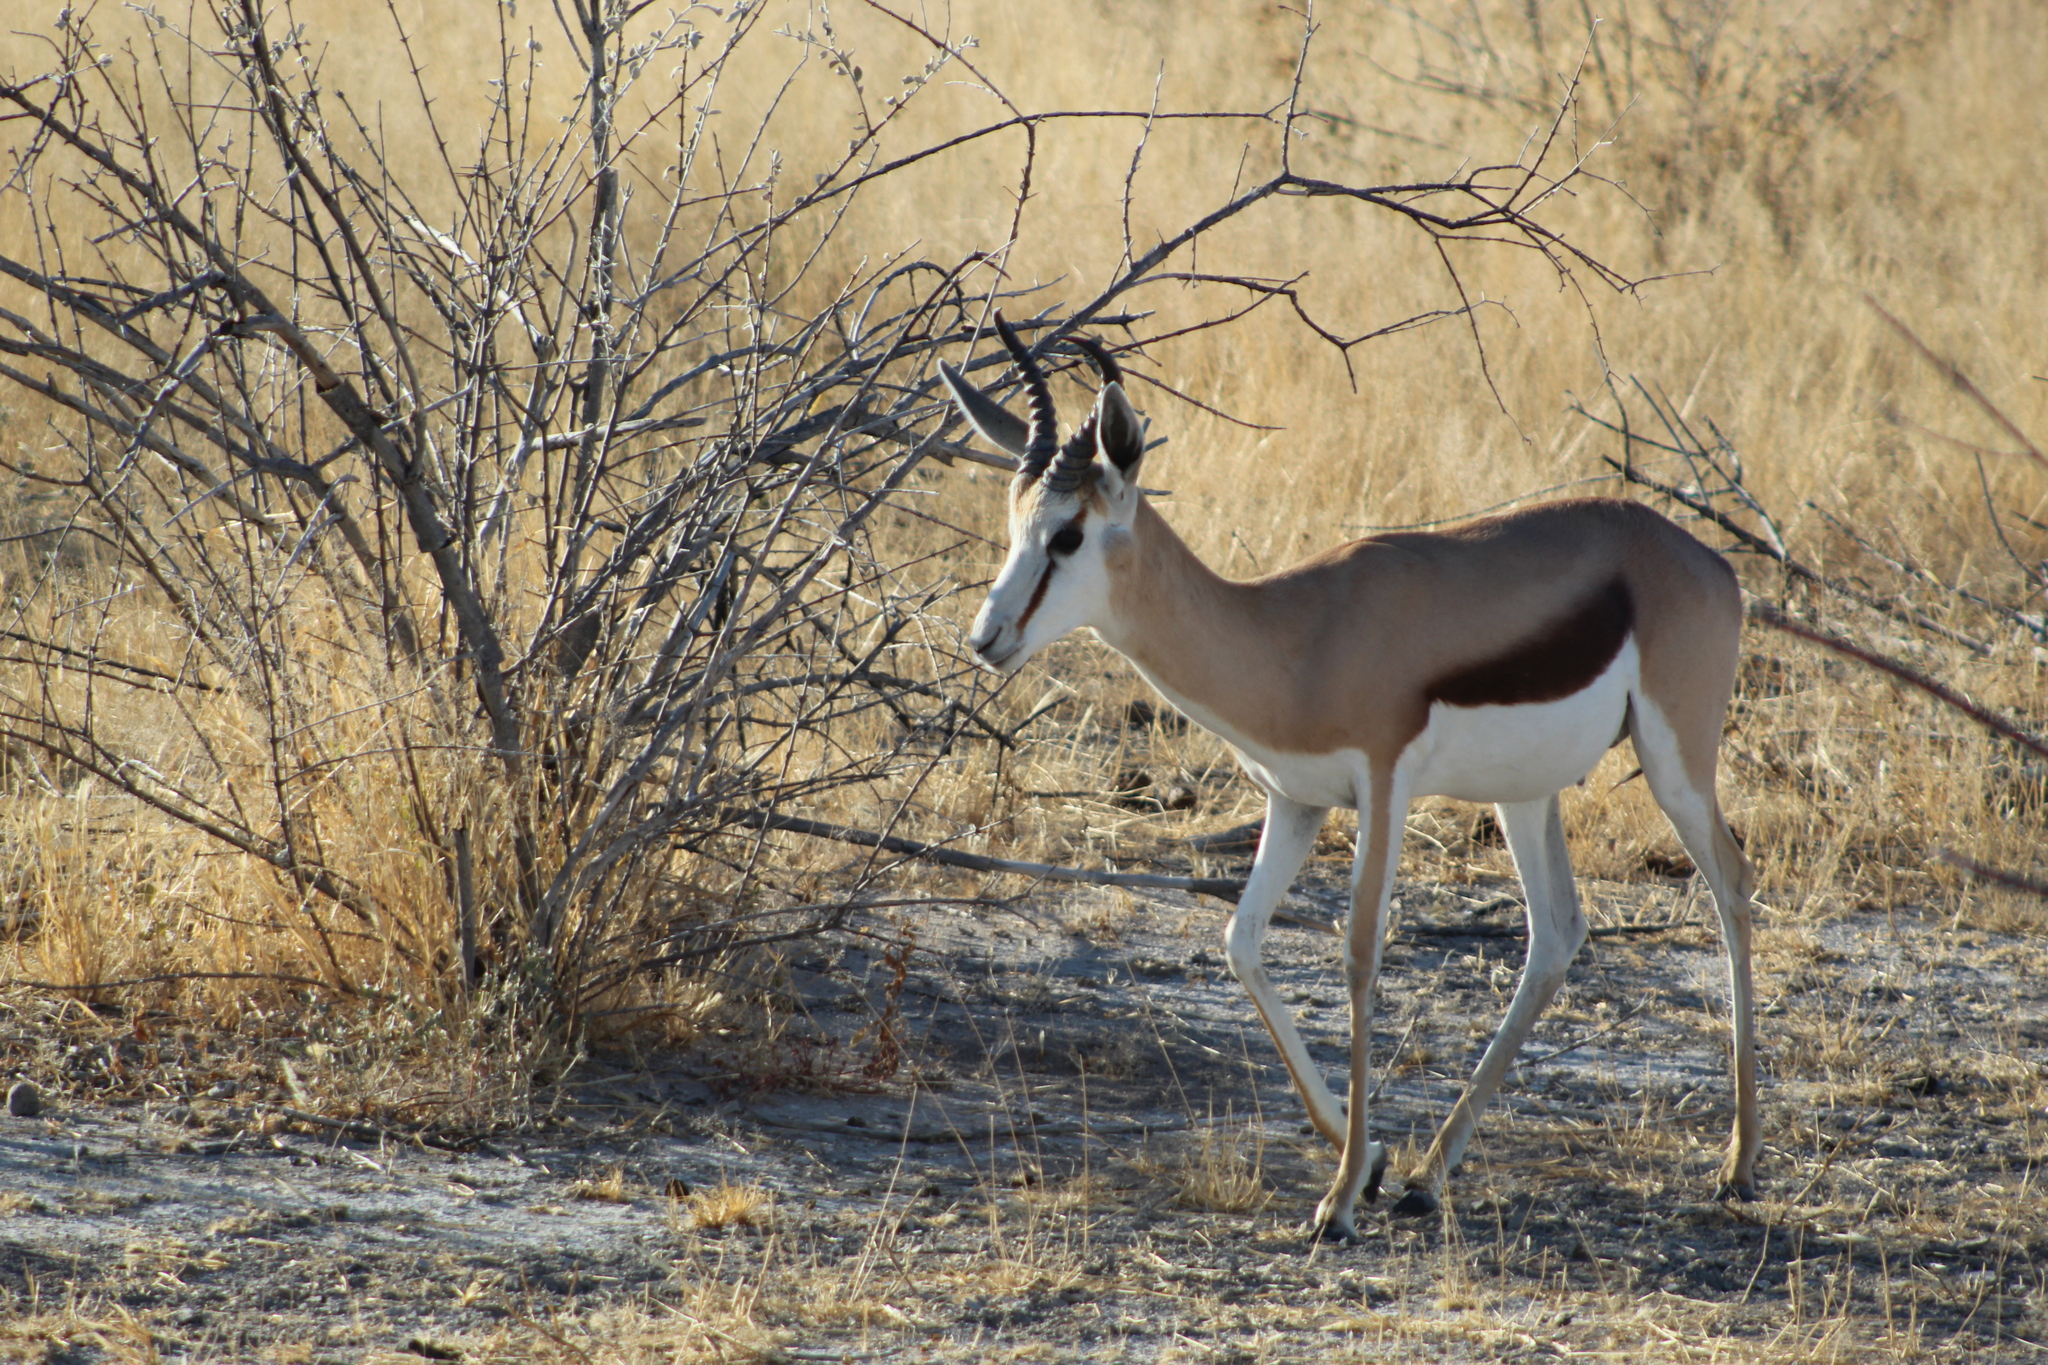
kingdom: Animalia
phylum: Chordata
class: Mammalia
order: Artiodactyla
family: Bovidae
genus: Antidorcas
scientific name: Antidorcas marsupialis
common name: Springbok
